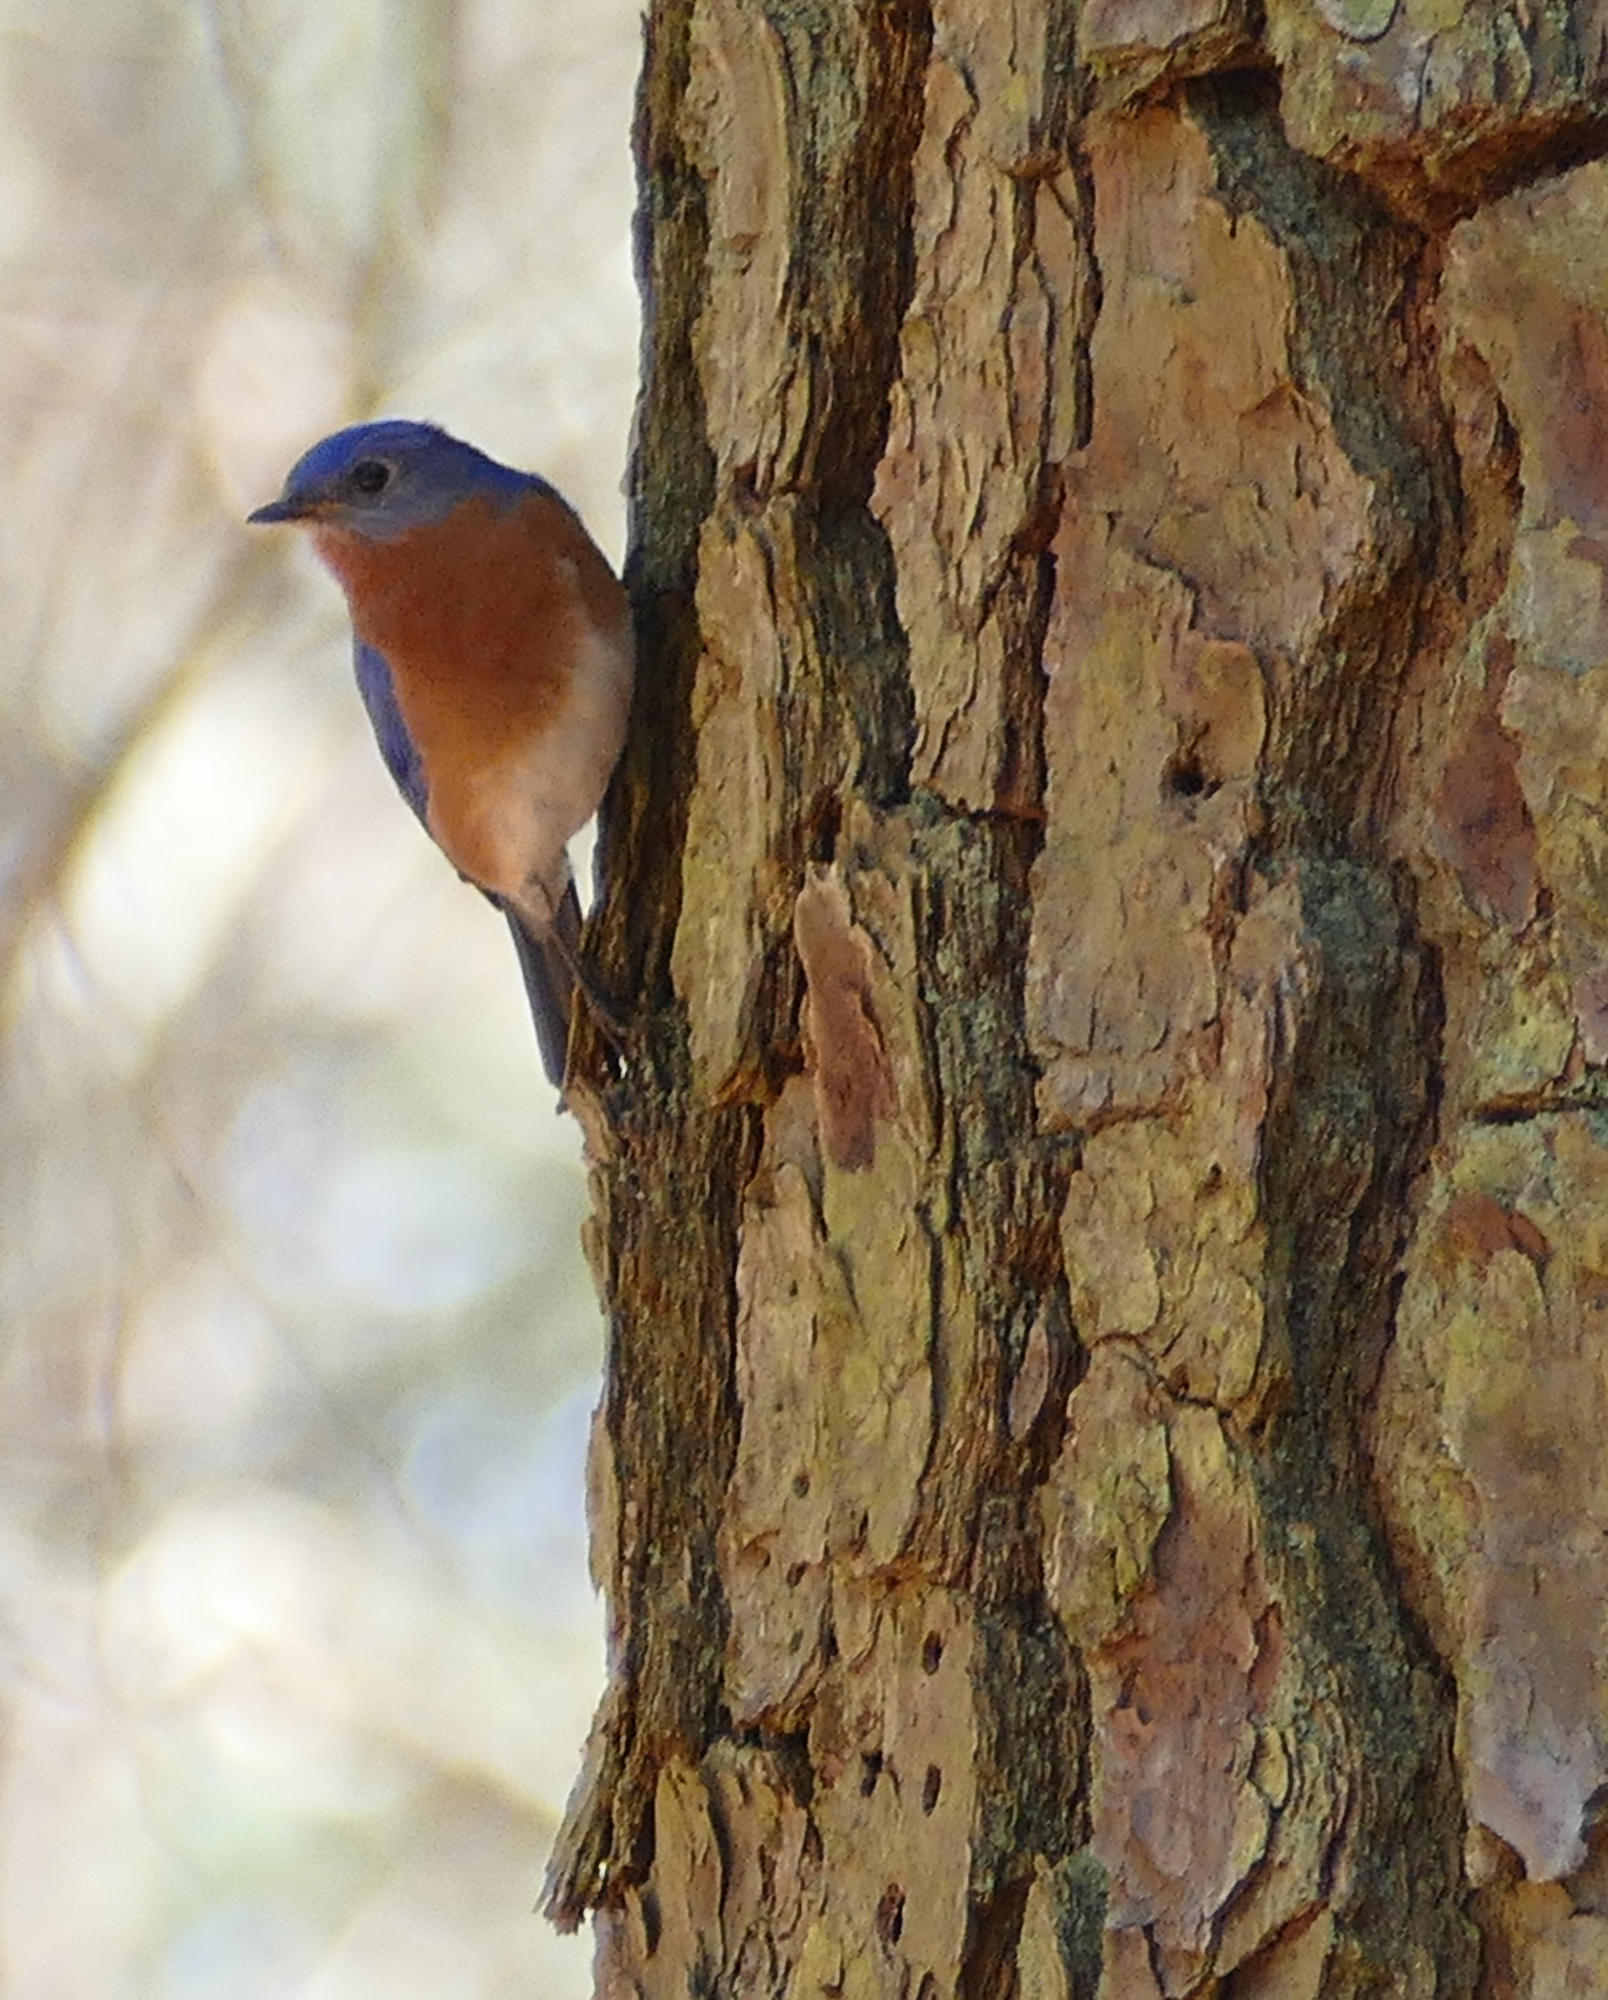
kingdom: Animalia
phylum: Chordata
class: Aves
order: Passeriformes
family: Turdidae
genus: Sialia
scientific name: Sialia sialis
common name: Eastern bluebird
